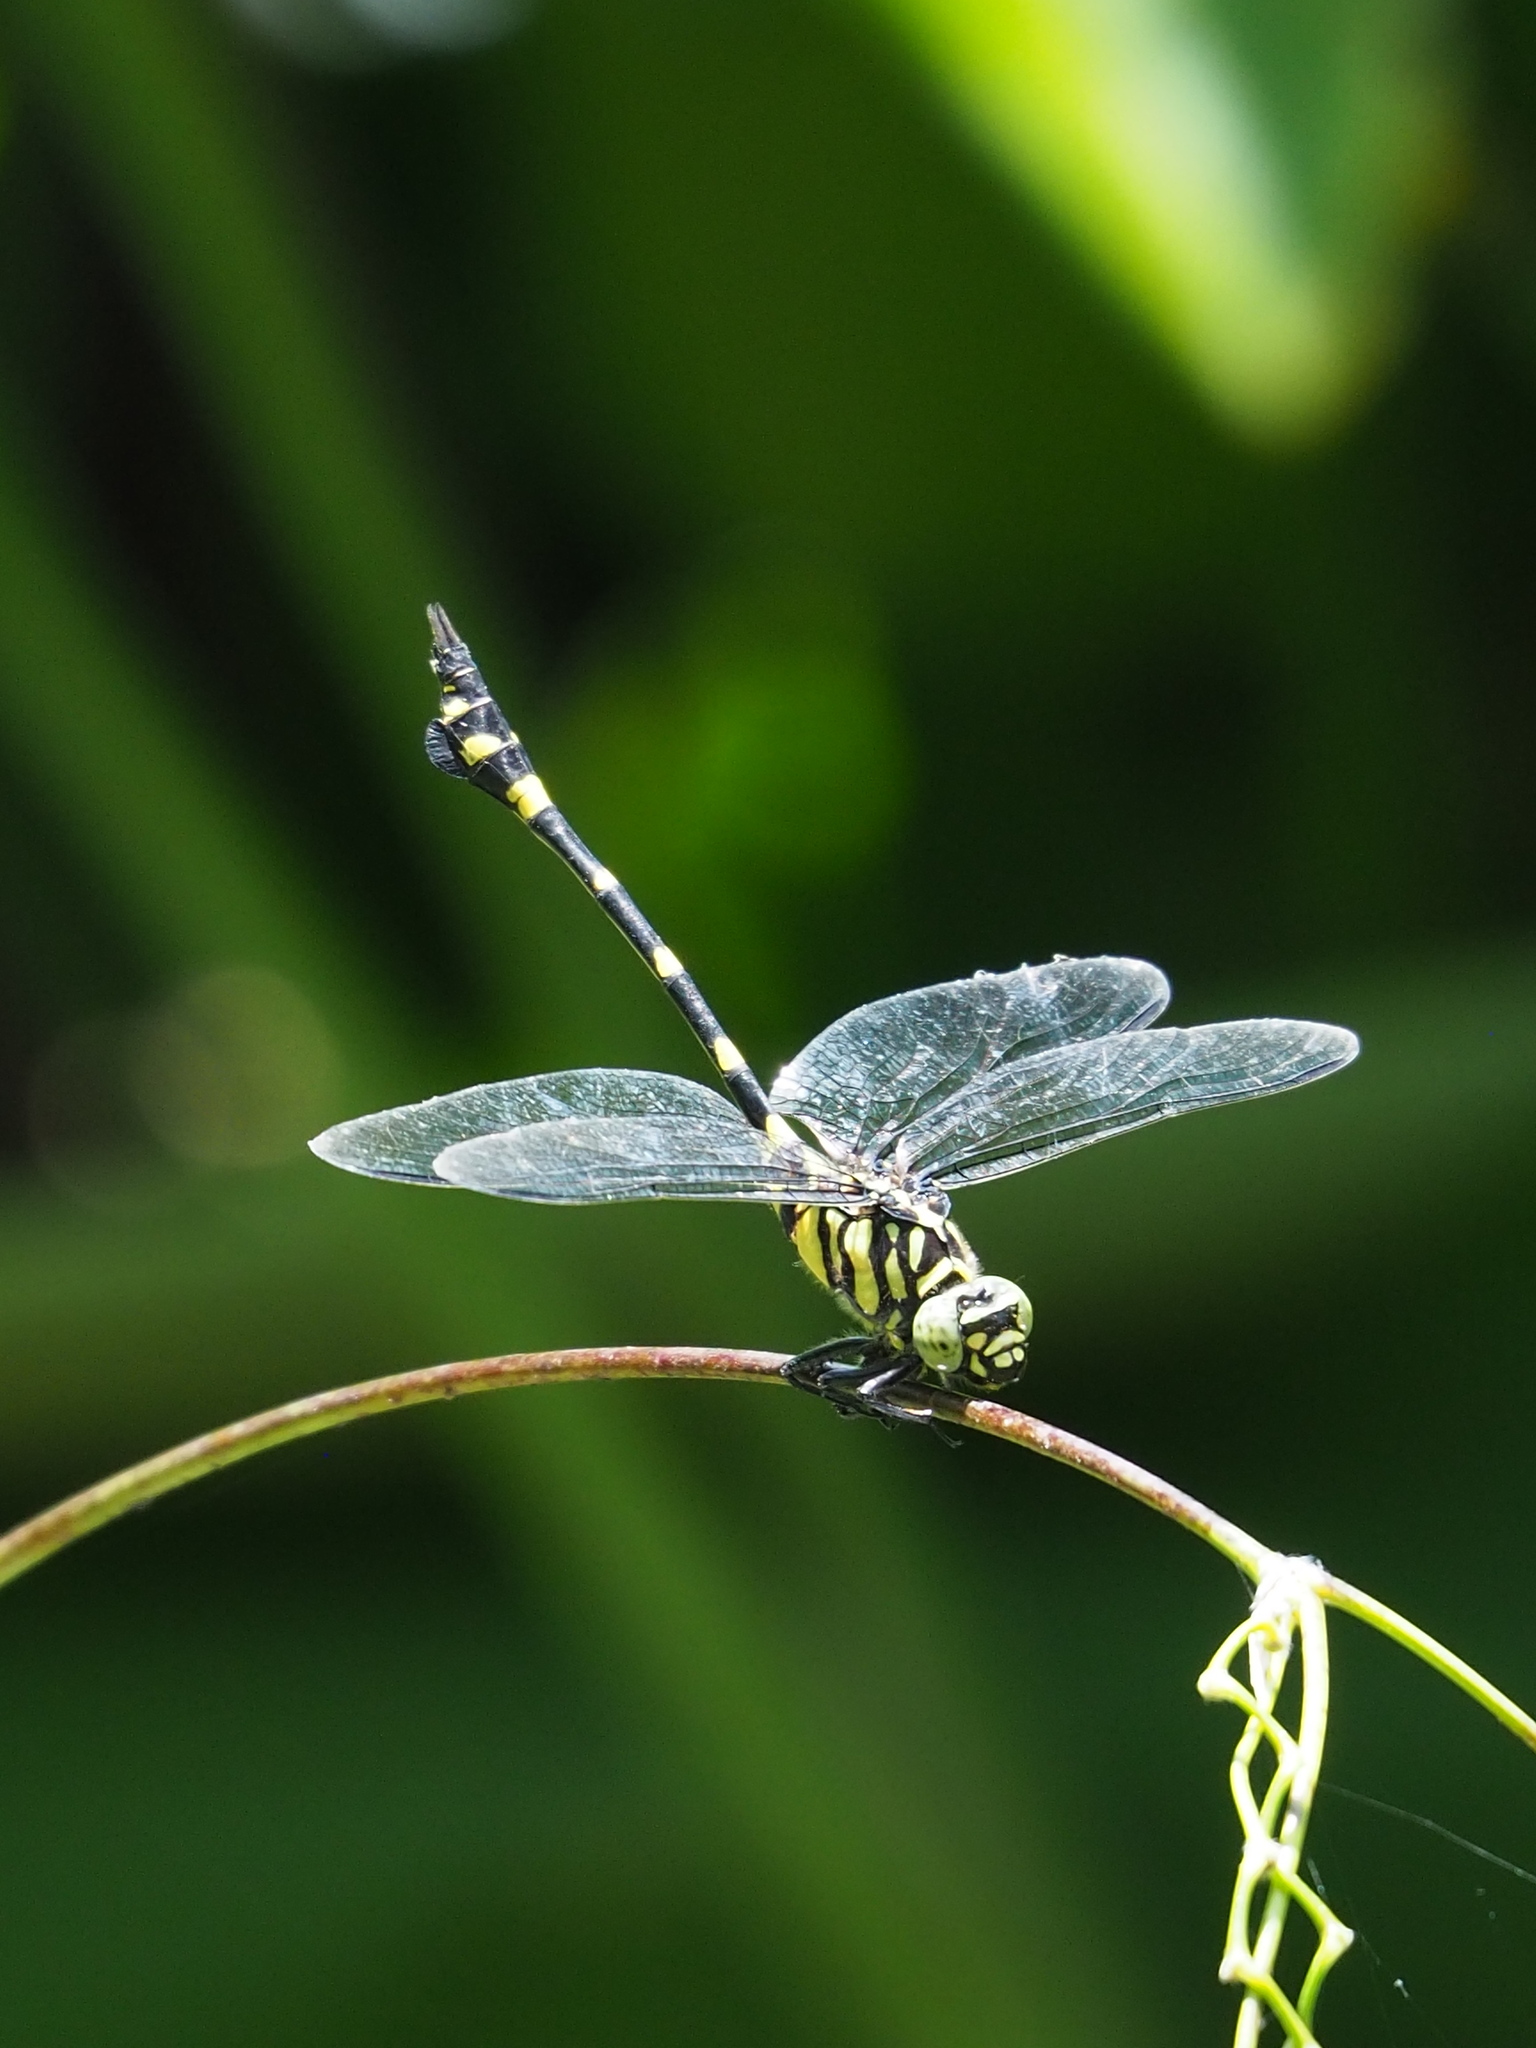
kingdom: Animalia
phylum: Arthropoda
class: Insecta
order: Odonata
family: Gomphidae
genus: Ictinogomphus
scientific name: Ictinogomphus rapax
